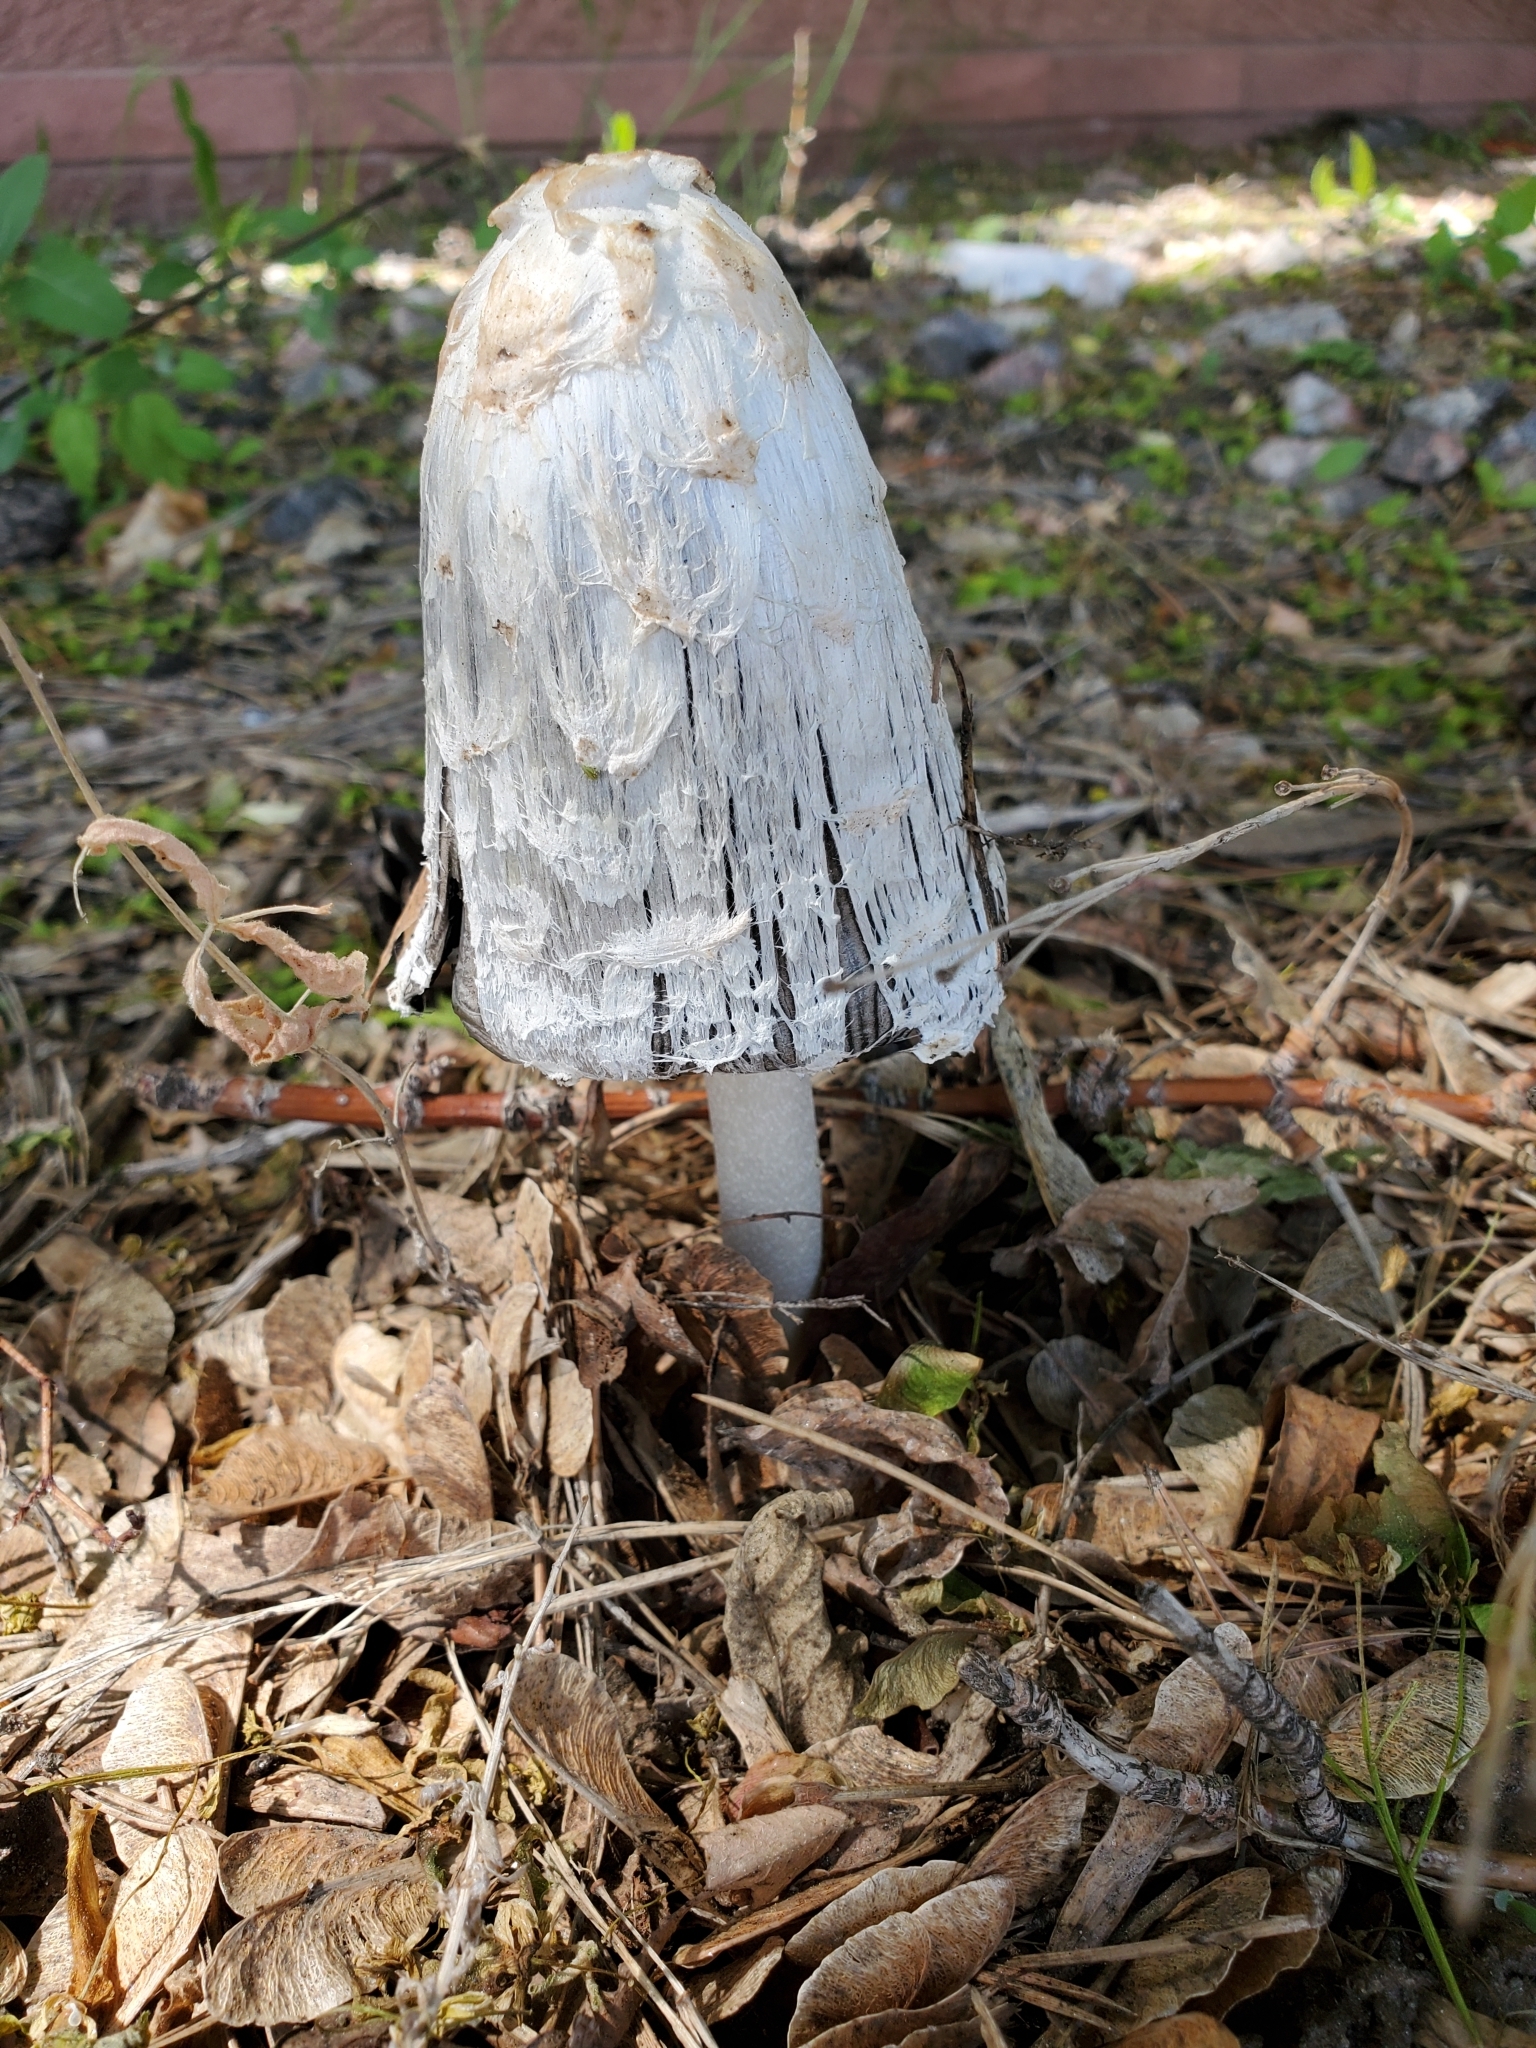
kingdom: Fungi
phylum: Basidiomycota
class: Agaricomycetes
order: Agaricales
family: Agaricaceae
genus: Coprinus
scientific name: Coprinus comatus
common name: Lawyer's wig
